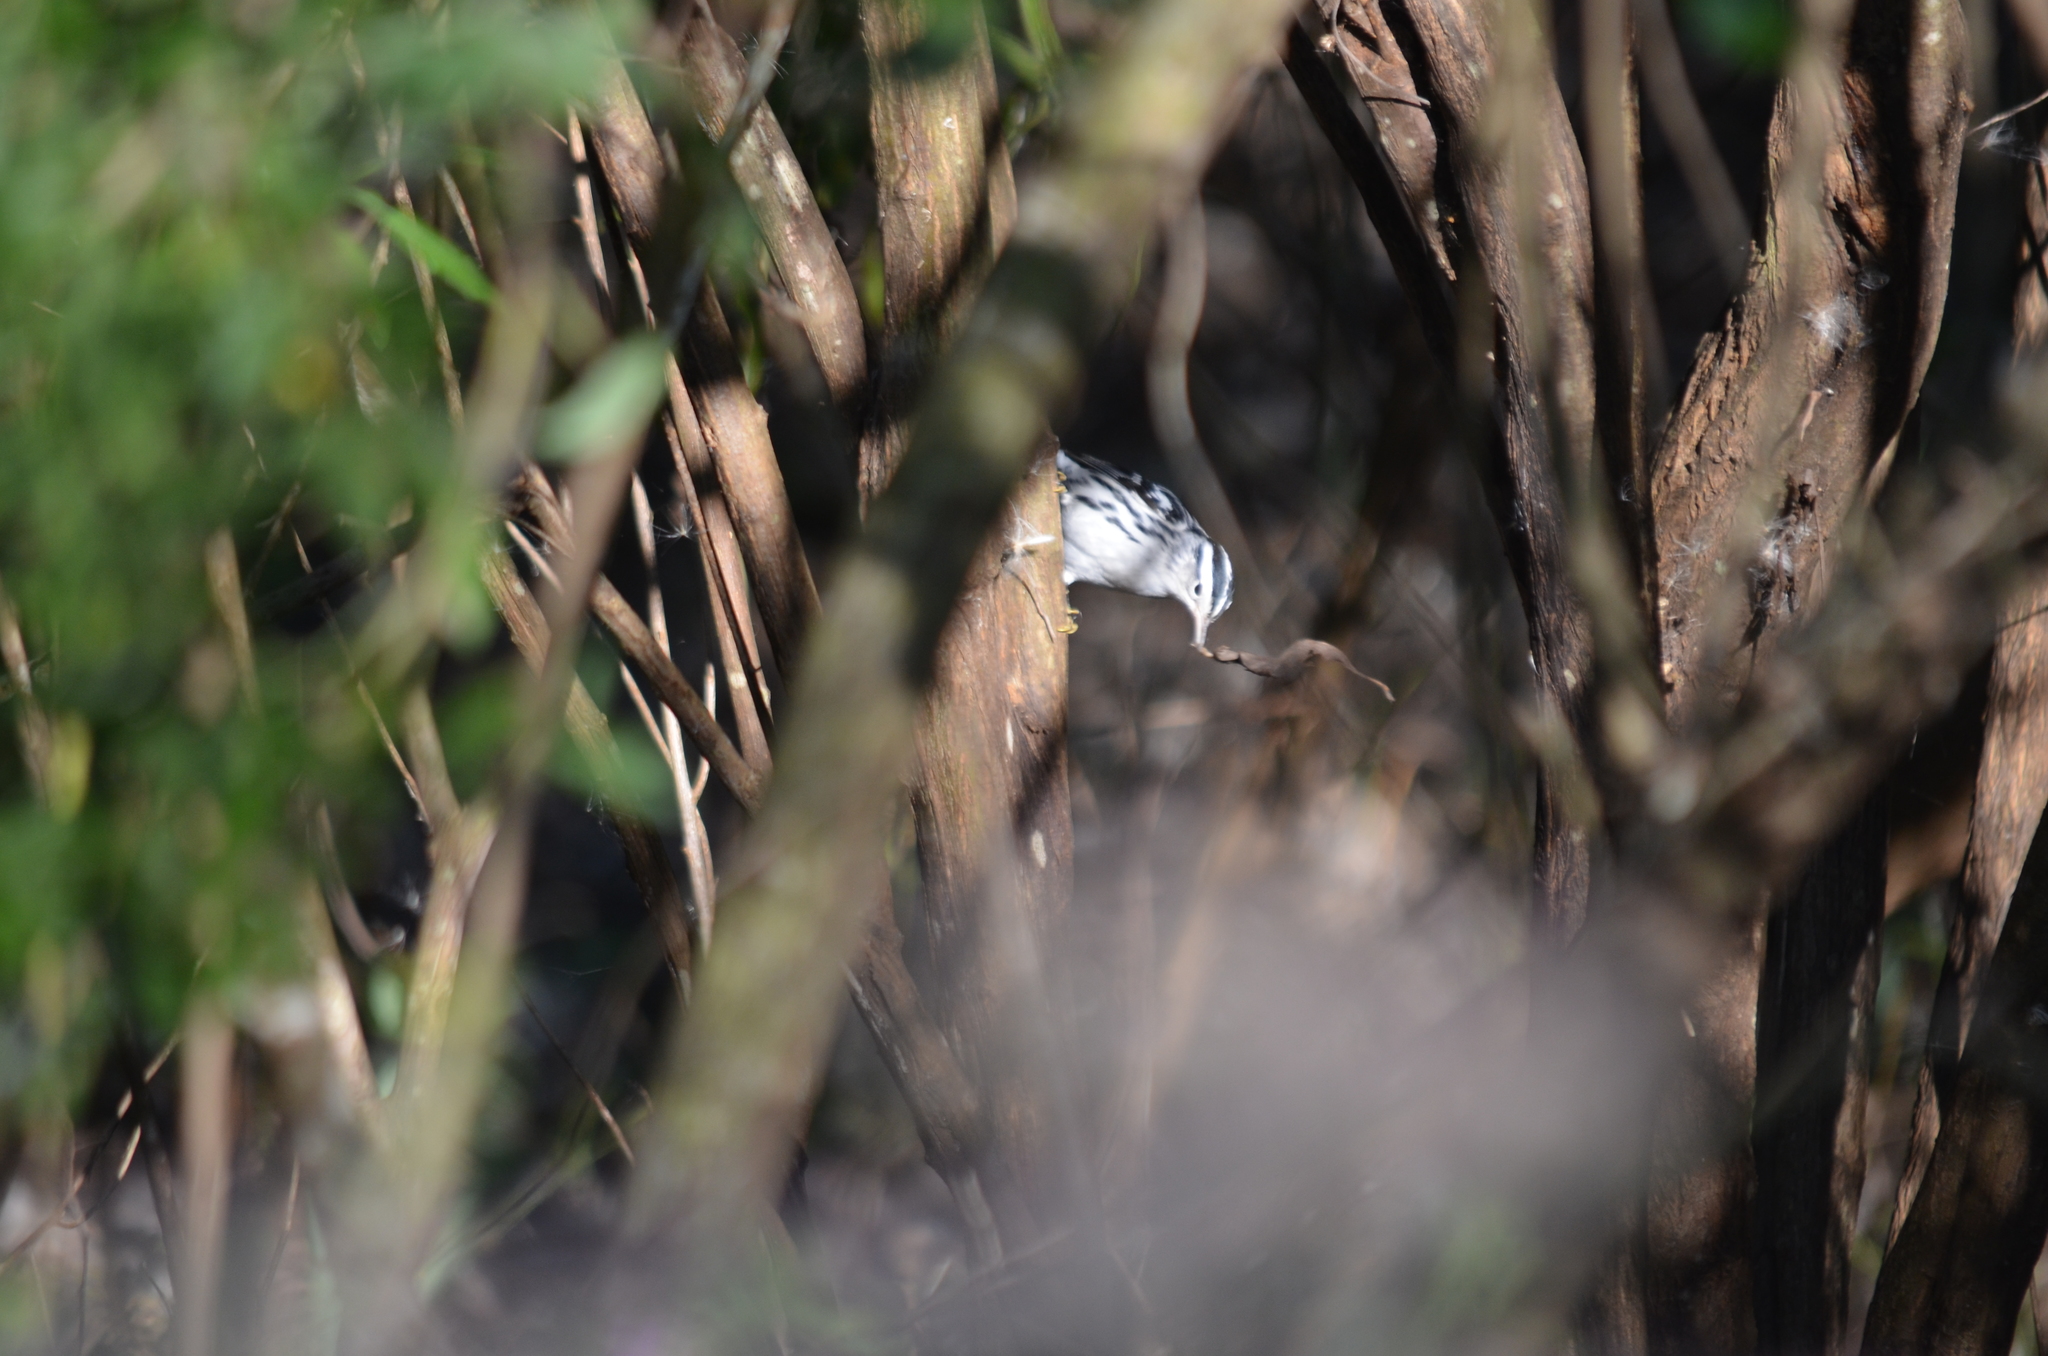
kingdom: Animalia
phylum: Chordata
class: Aves
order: Passeriformes
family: Parulidae
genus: Mniotilta
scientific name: Mniotilta varia
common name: Black-and-white warbler
